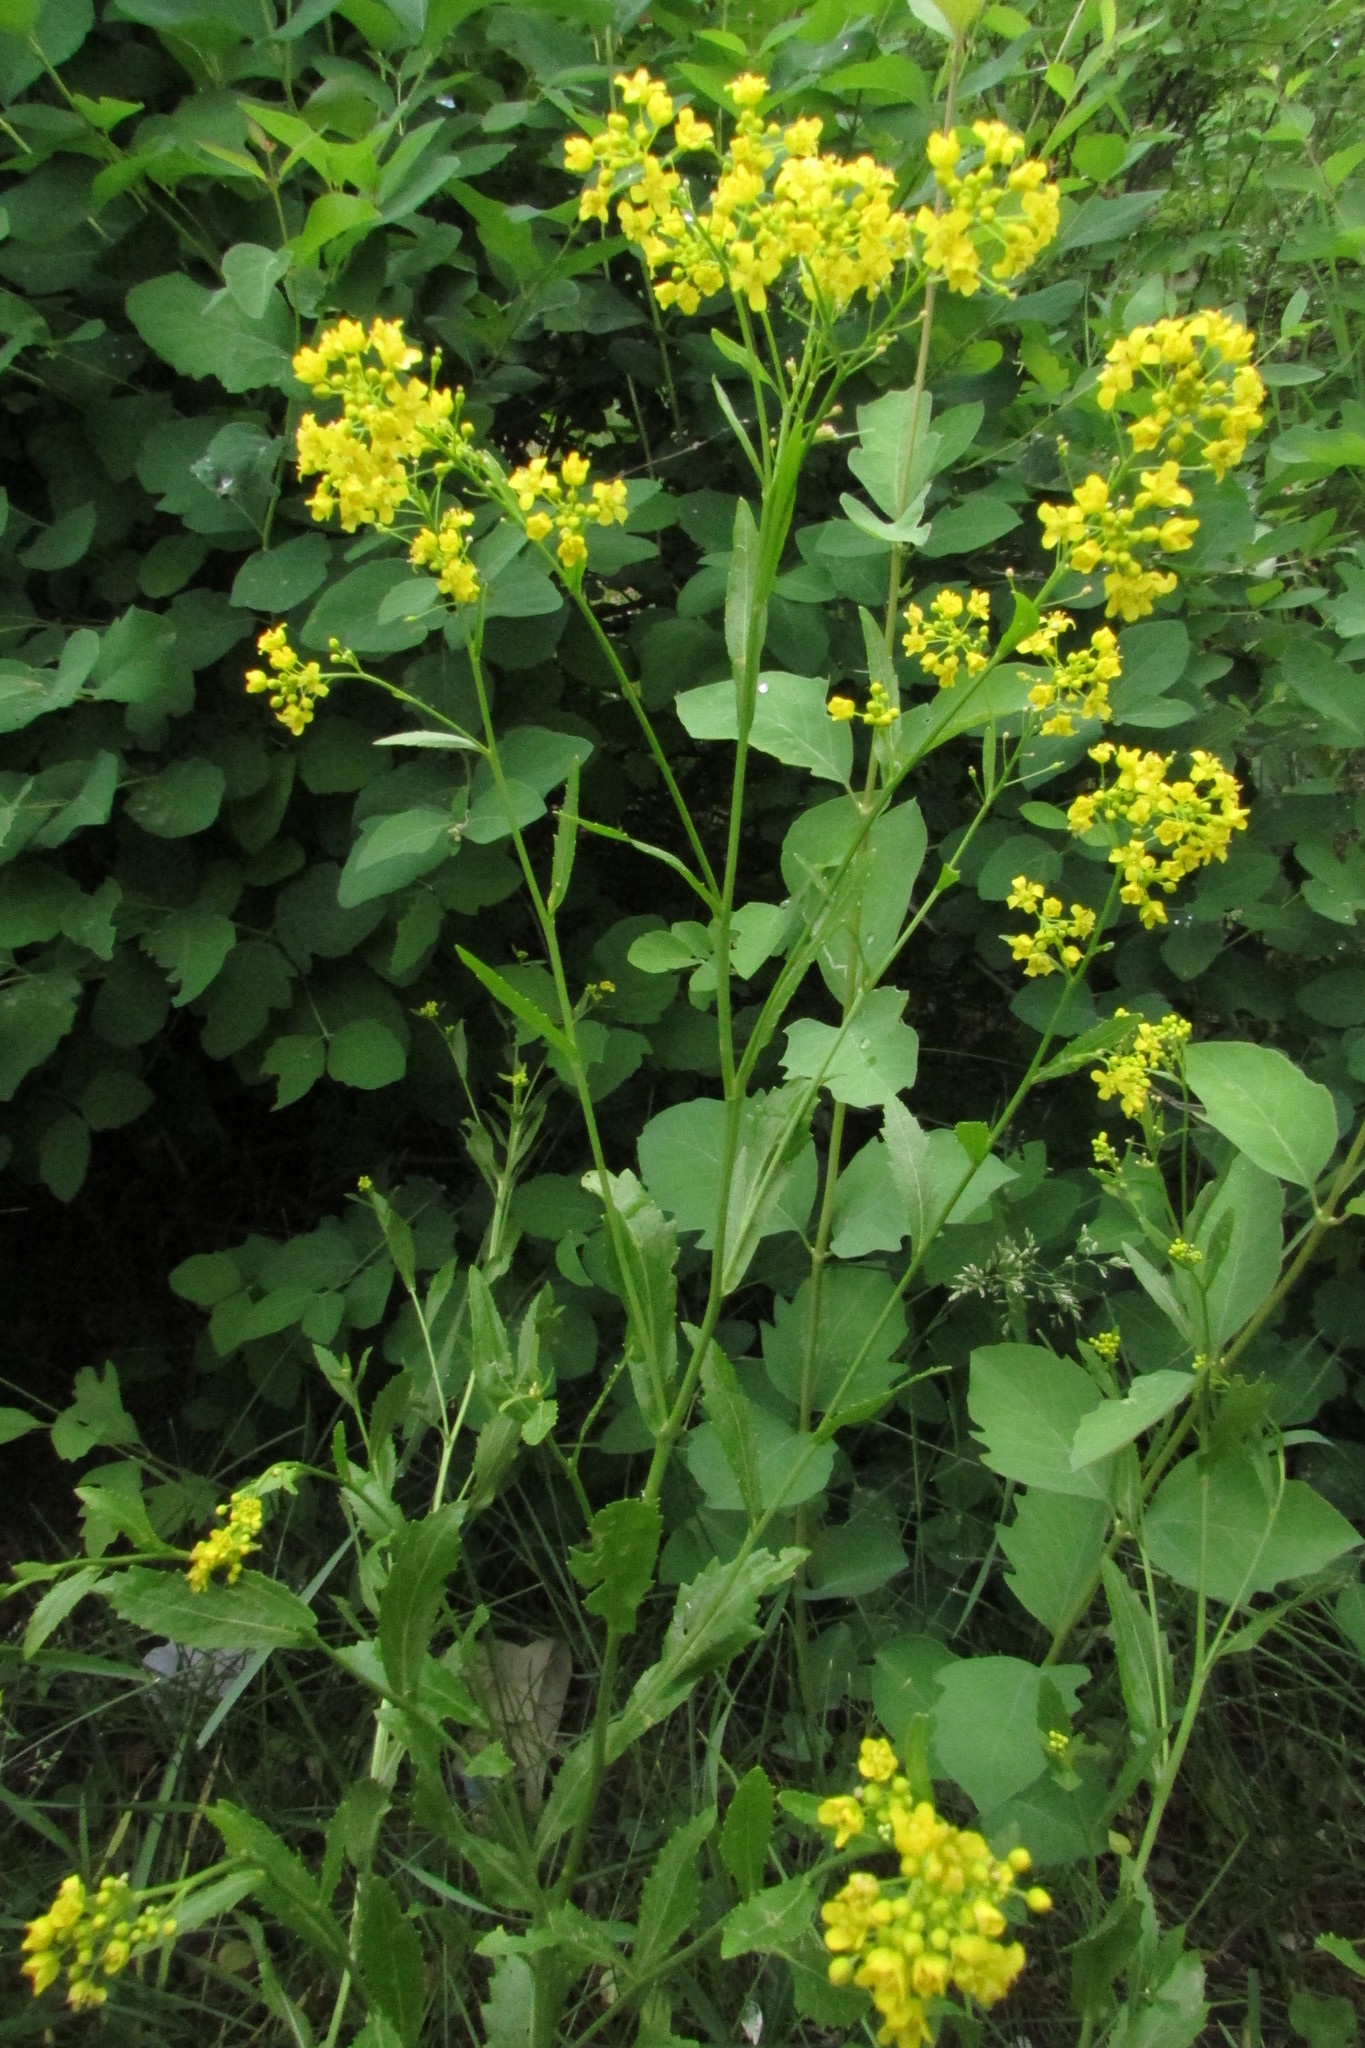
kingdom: Plantae
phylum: Tracheophyta
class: Magnoliopsida
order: Brassicales
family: Brassicaceae
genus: Rorippa
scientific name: Rorippa austriaca
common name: Austrian yellow-cress
